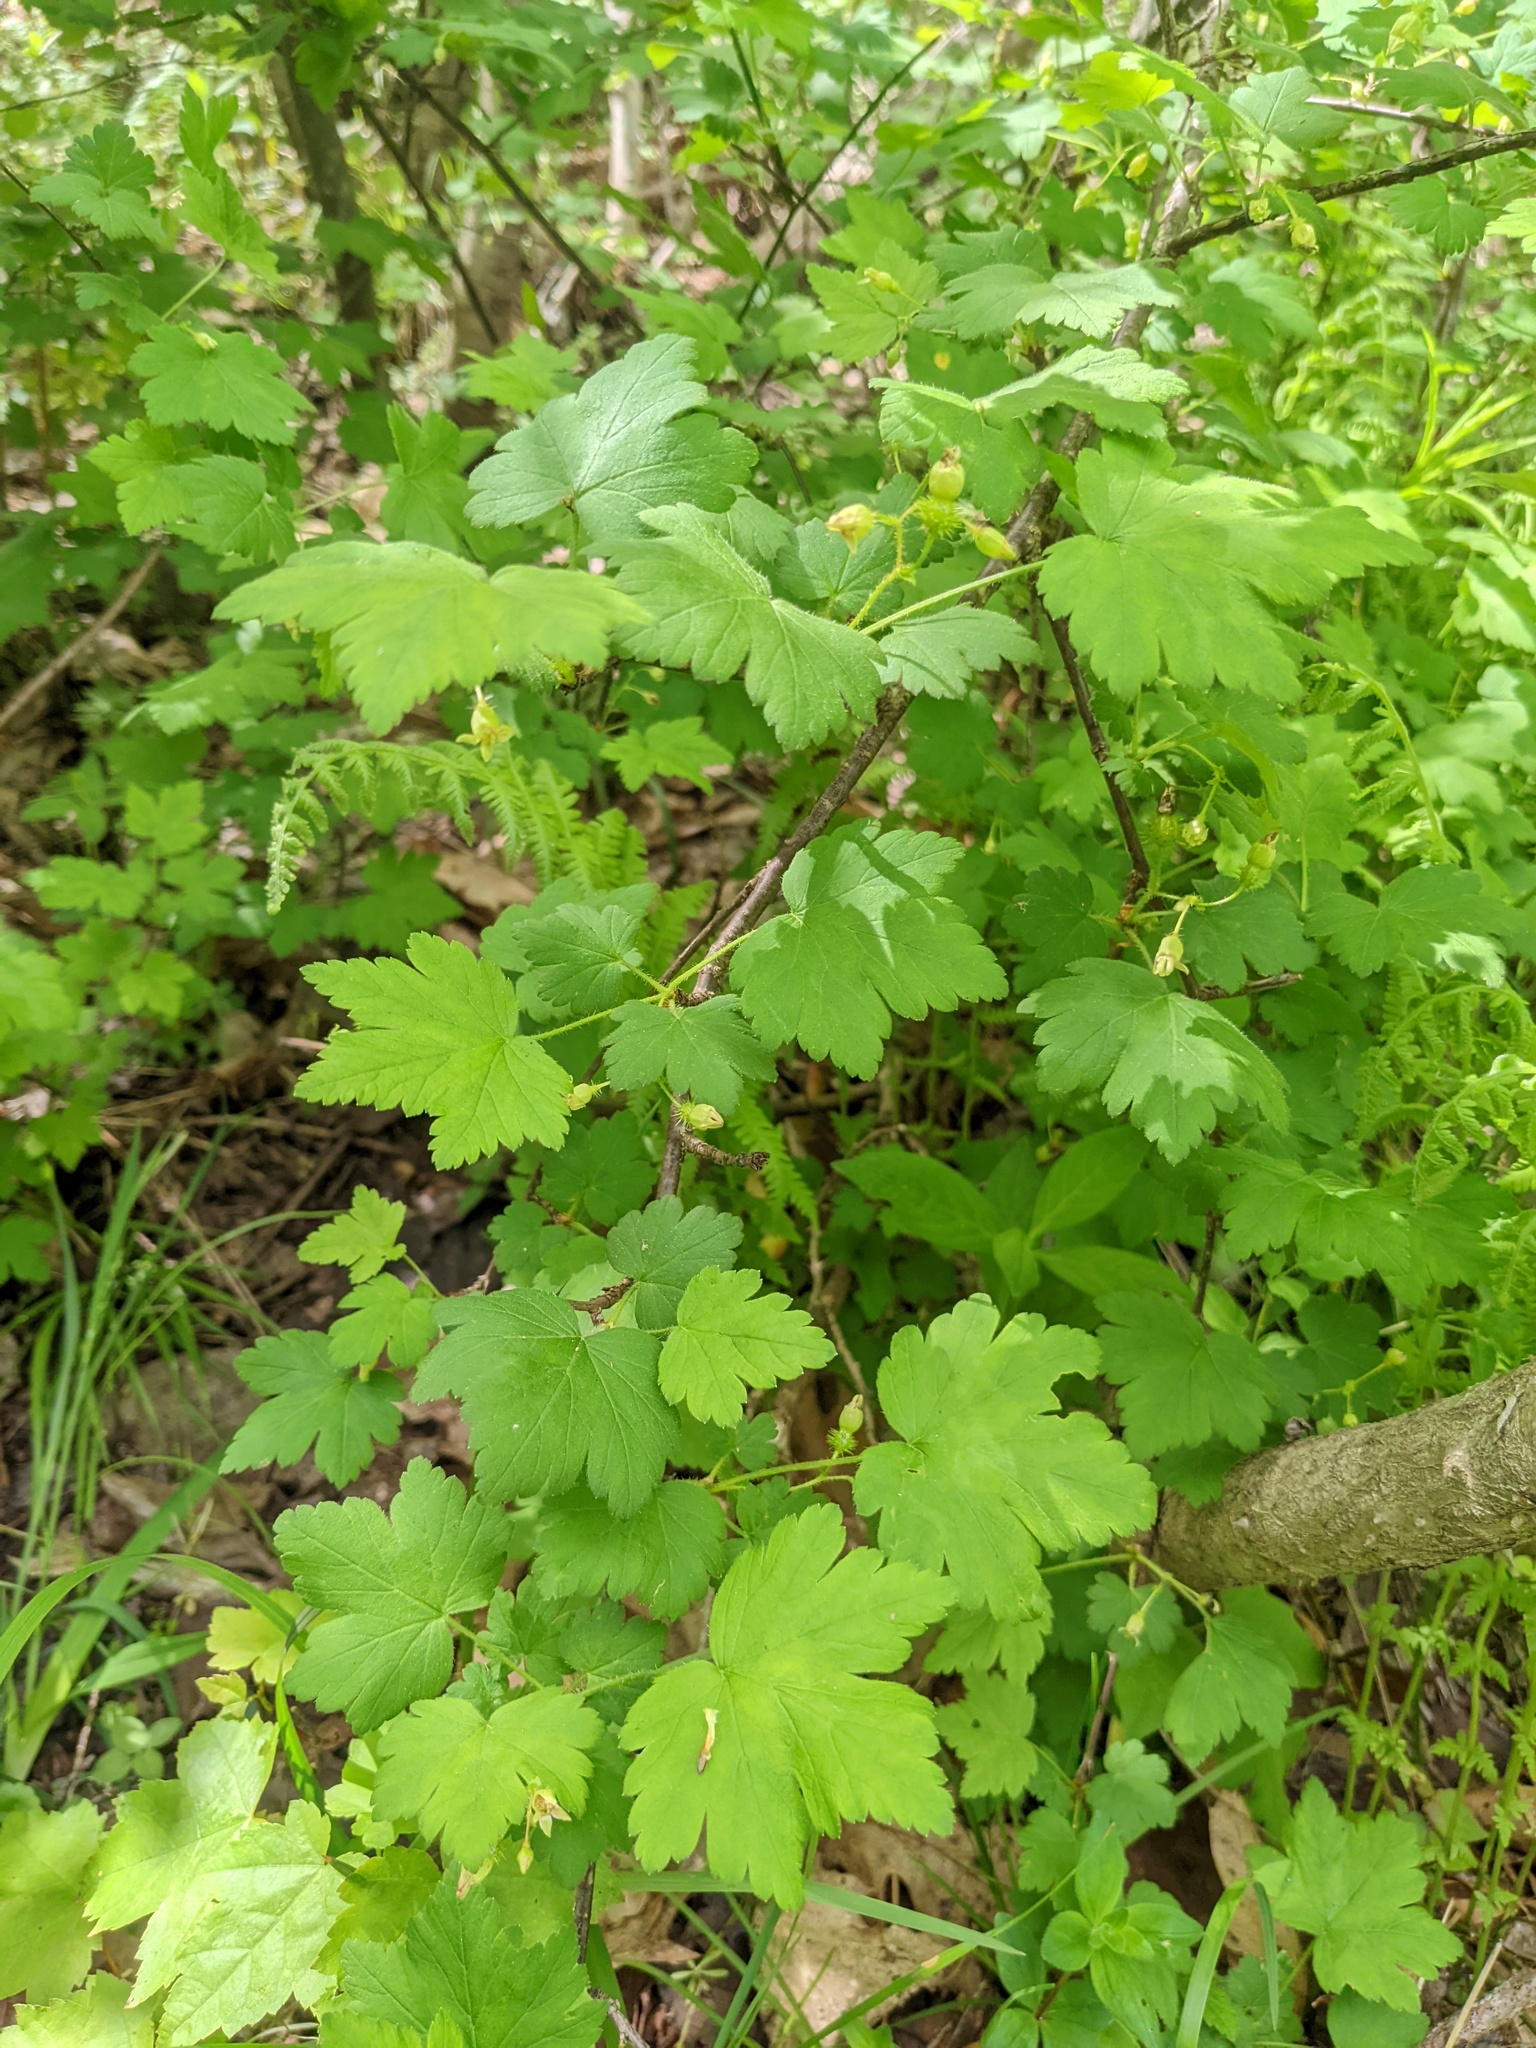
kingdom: Plantae
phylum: Tracheophyta
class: Magnoliopsida
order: Saxifragales
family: Grossulariaceae
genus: Ribes
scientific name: Ribes cynosbati
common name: American gooseberry
